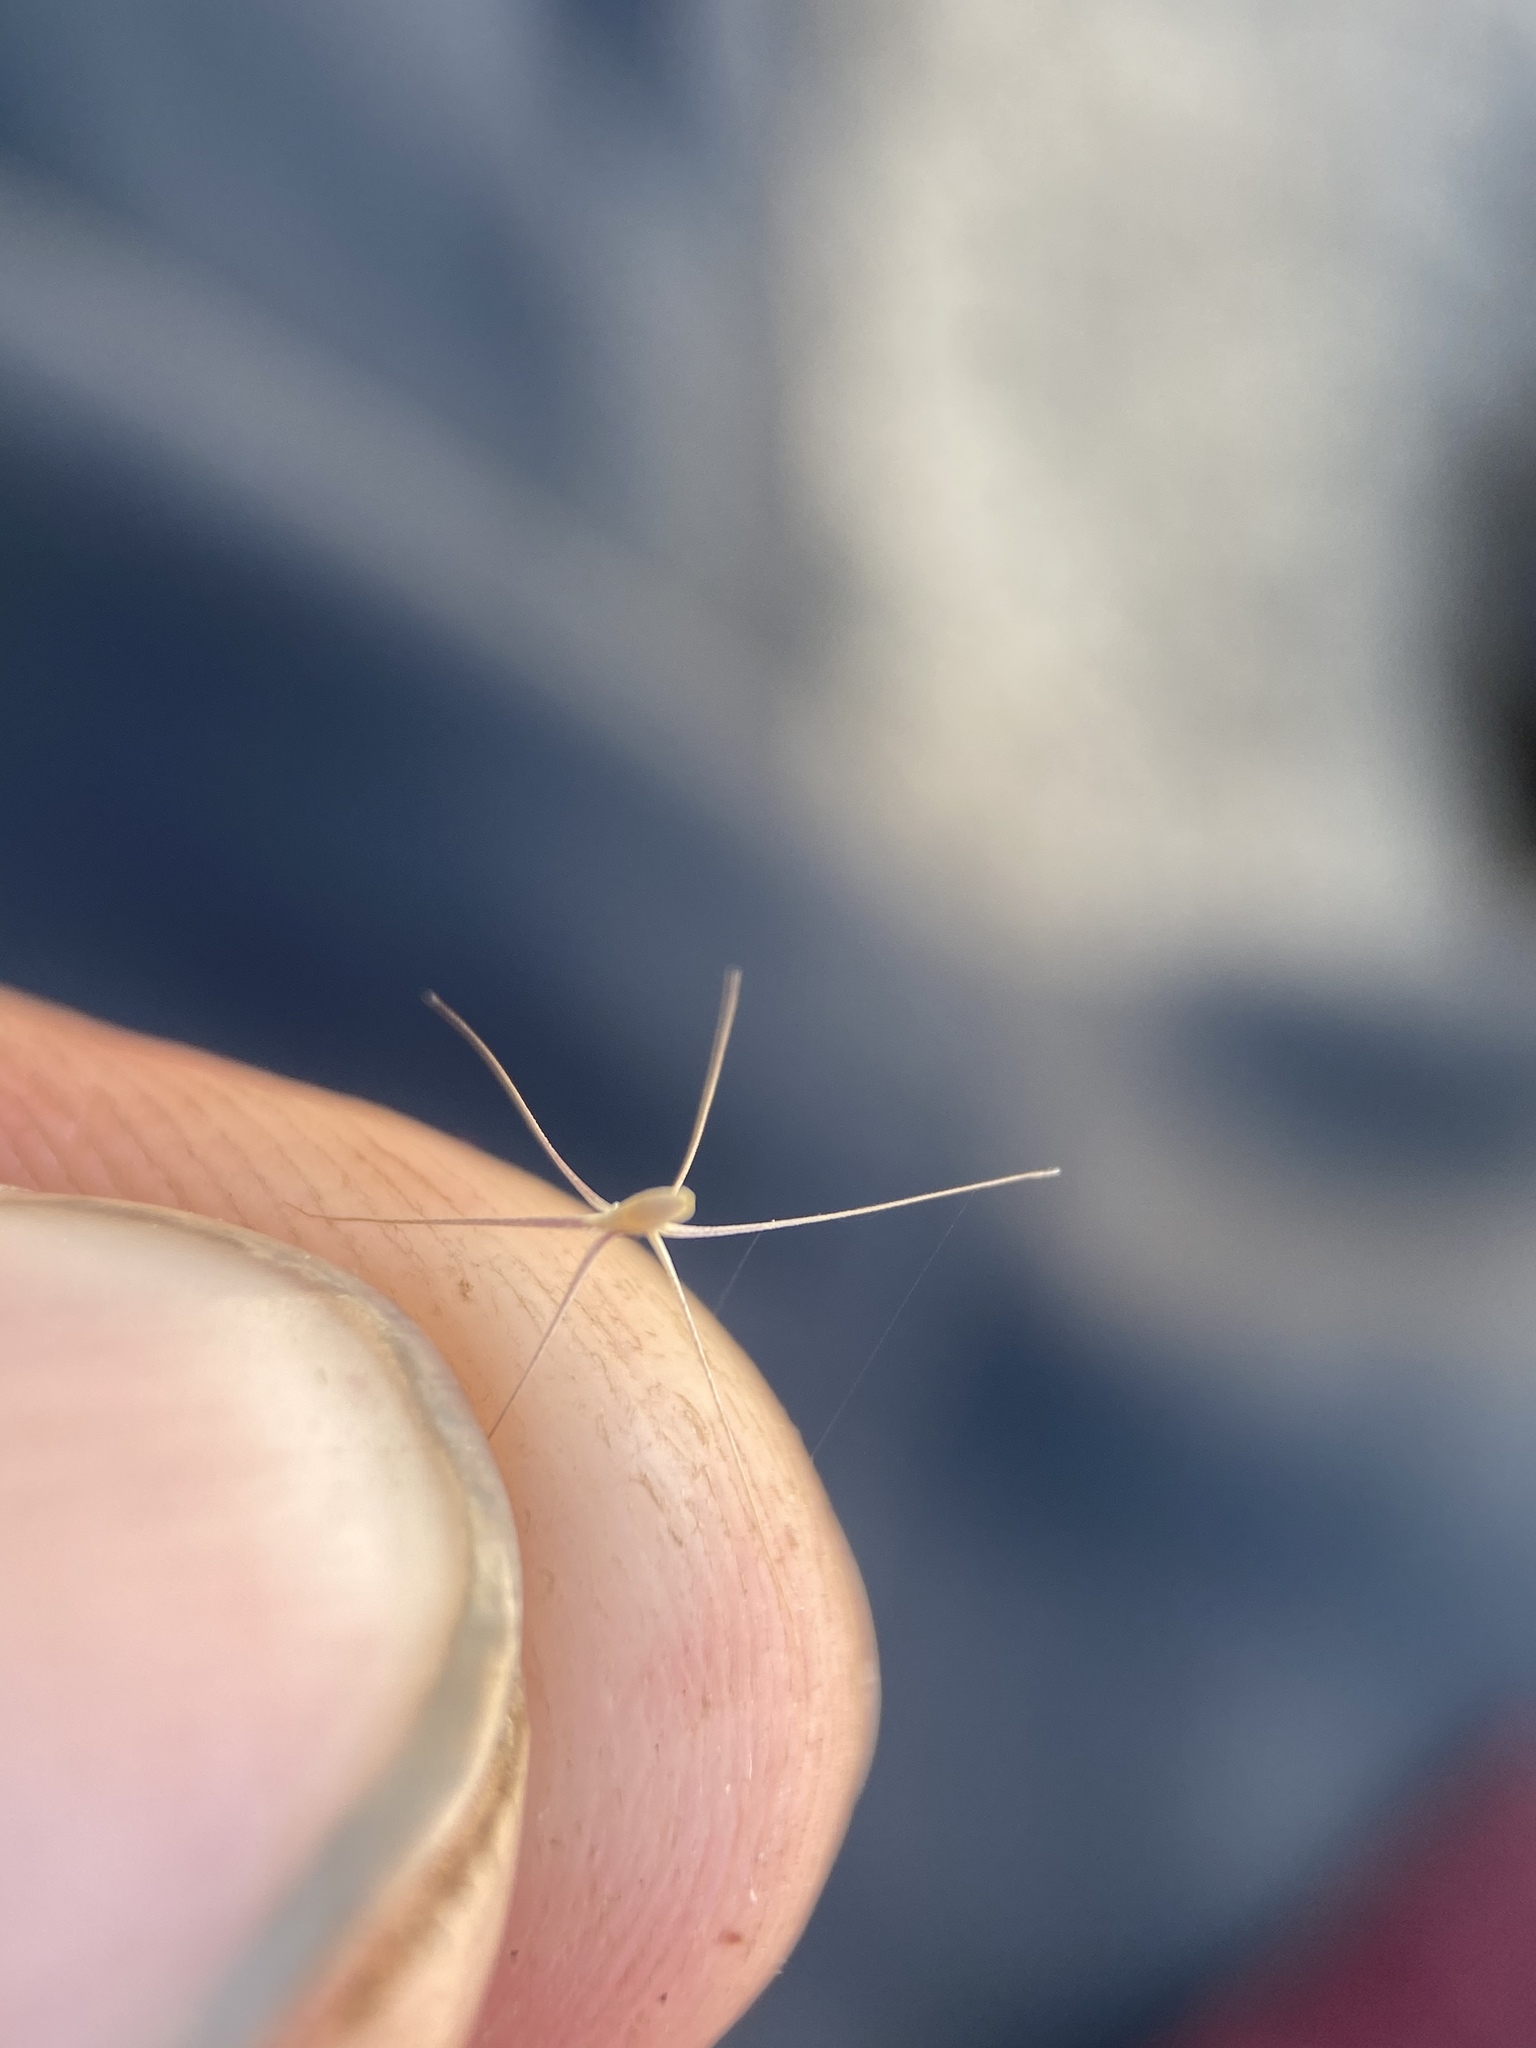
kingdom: Plantae
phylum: Tracheophyta
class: Liliopsida
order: Poales
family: Poaceae
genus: Bouteloua
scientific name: Bouteloua trifida
